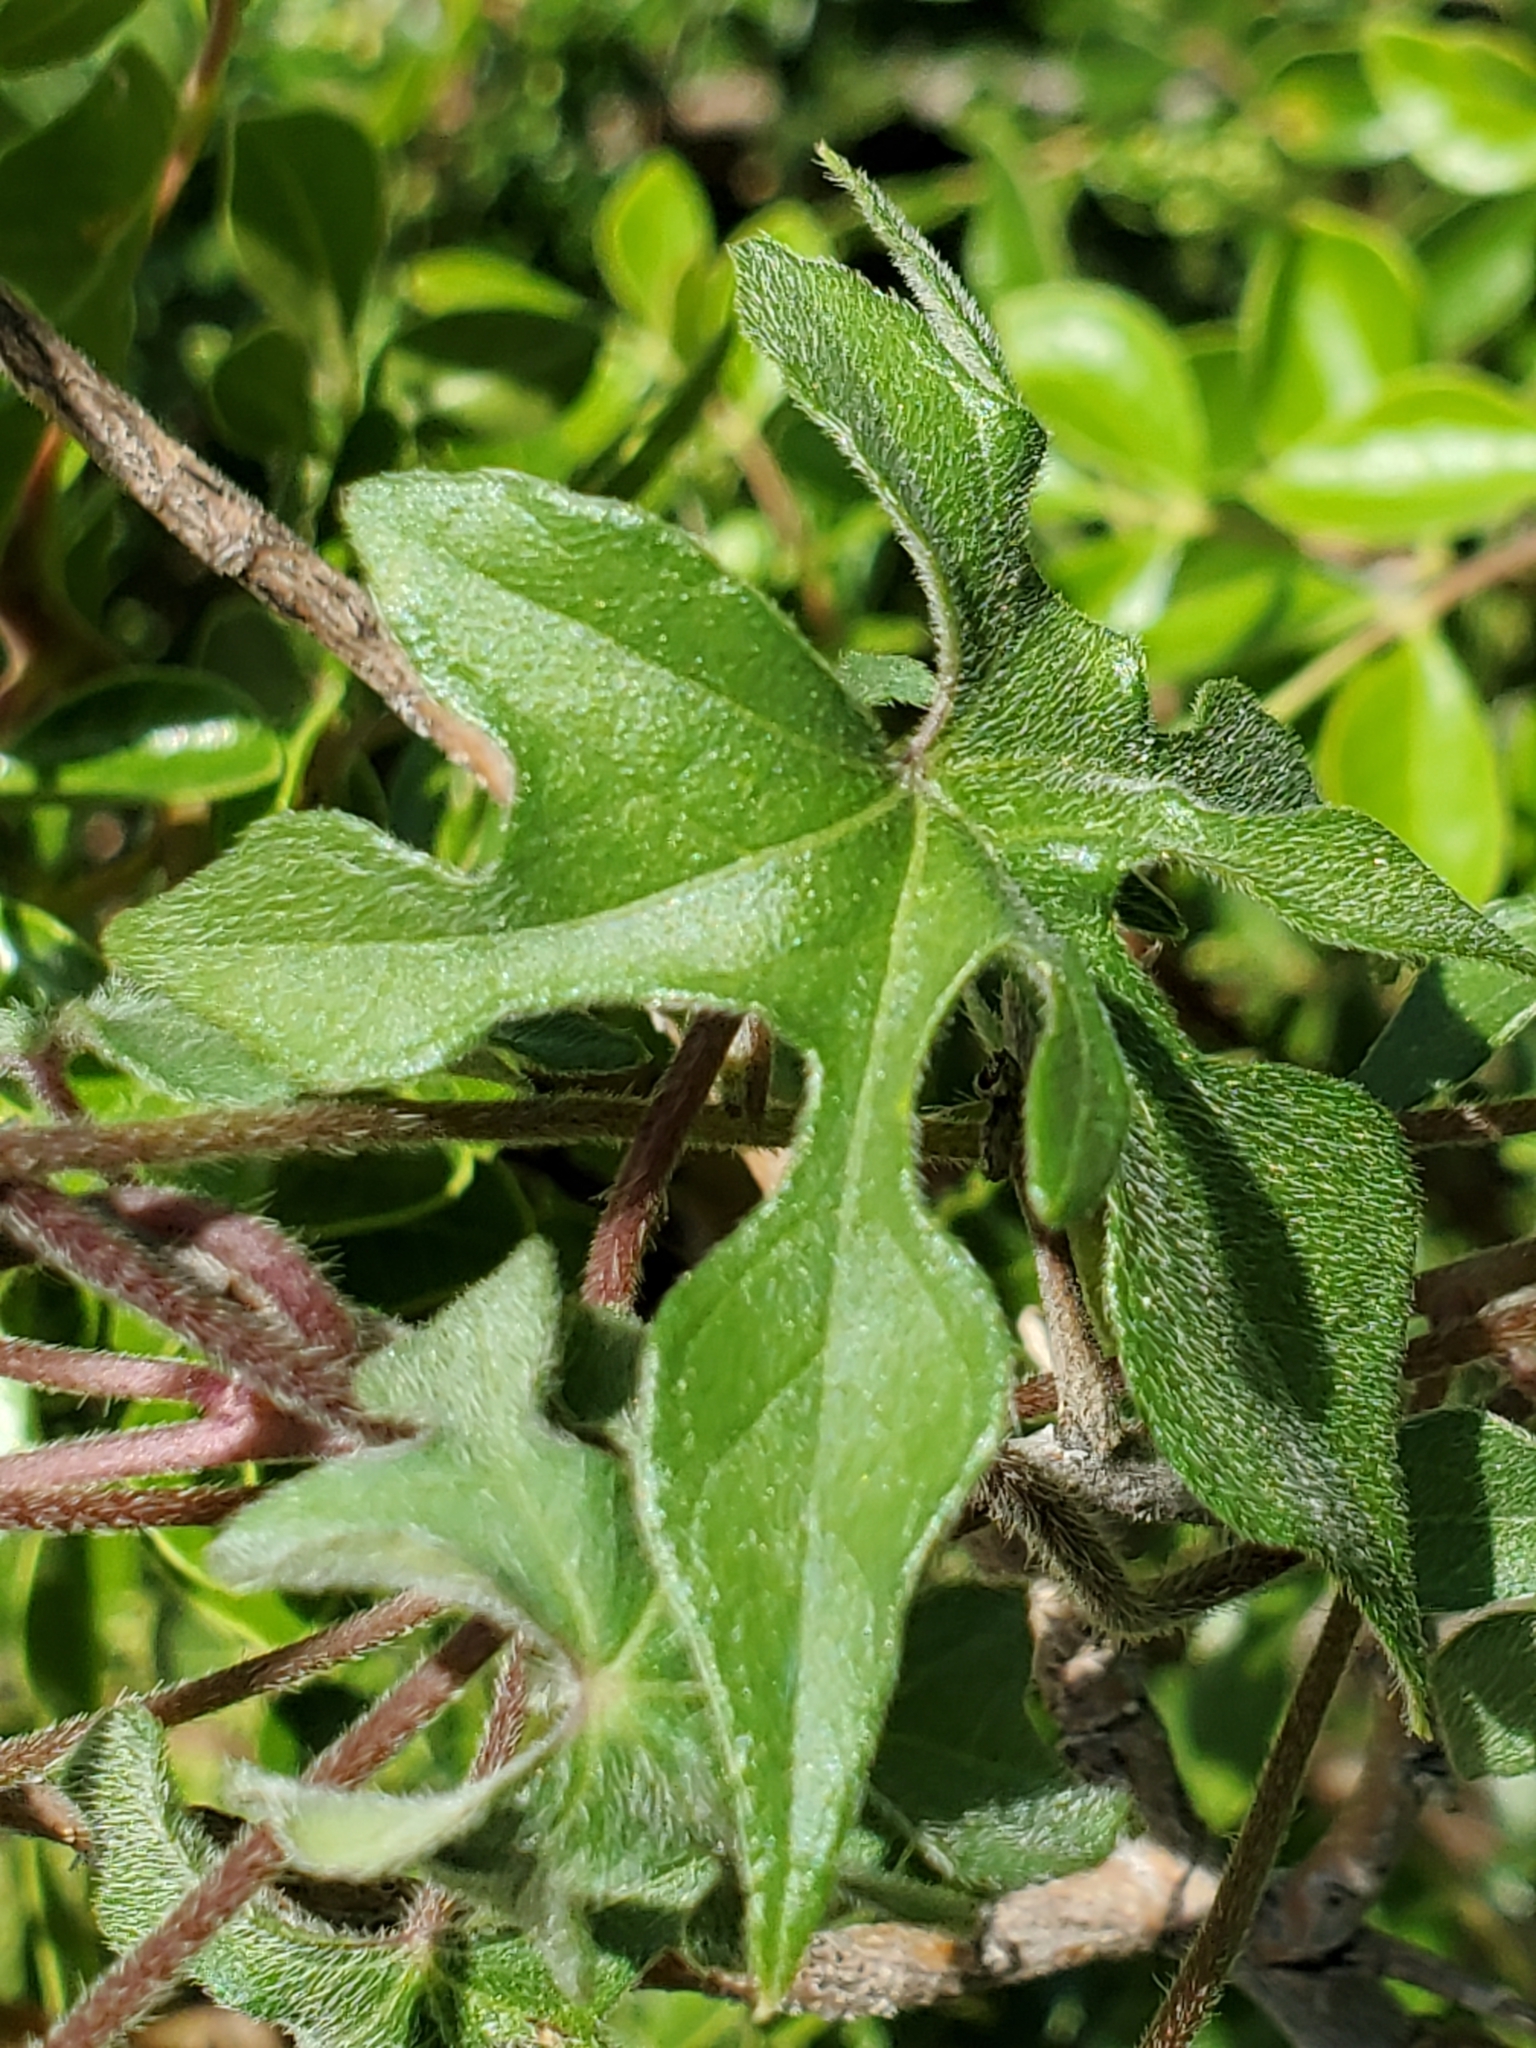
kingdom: Plantae
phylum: Tracheophyta
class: Magnoliopsida
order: Solanales
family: Convolvulaceae
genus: Ipomoea
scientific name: Ipomoea lindheimeri
